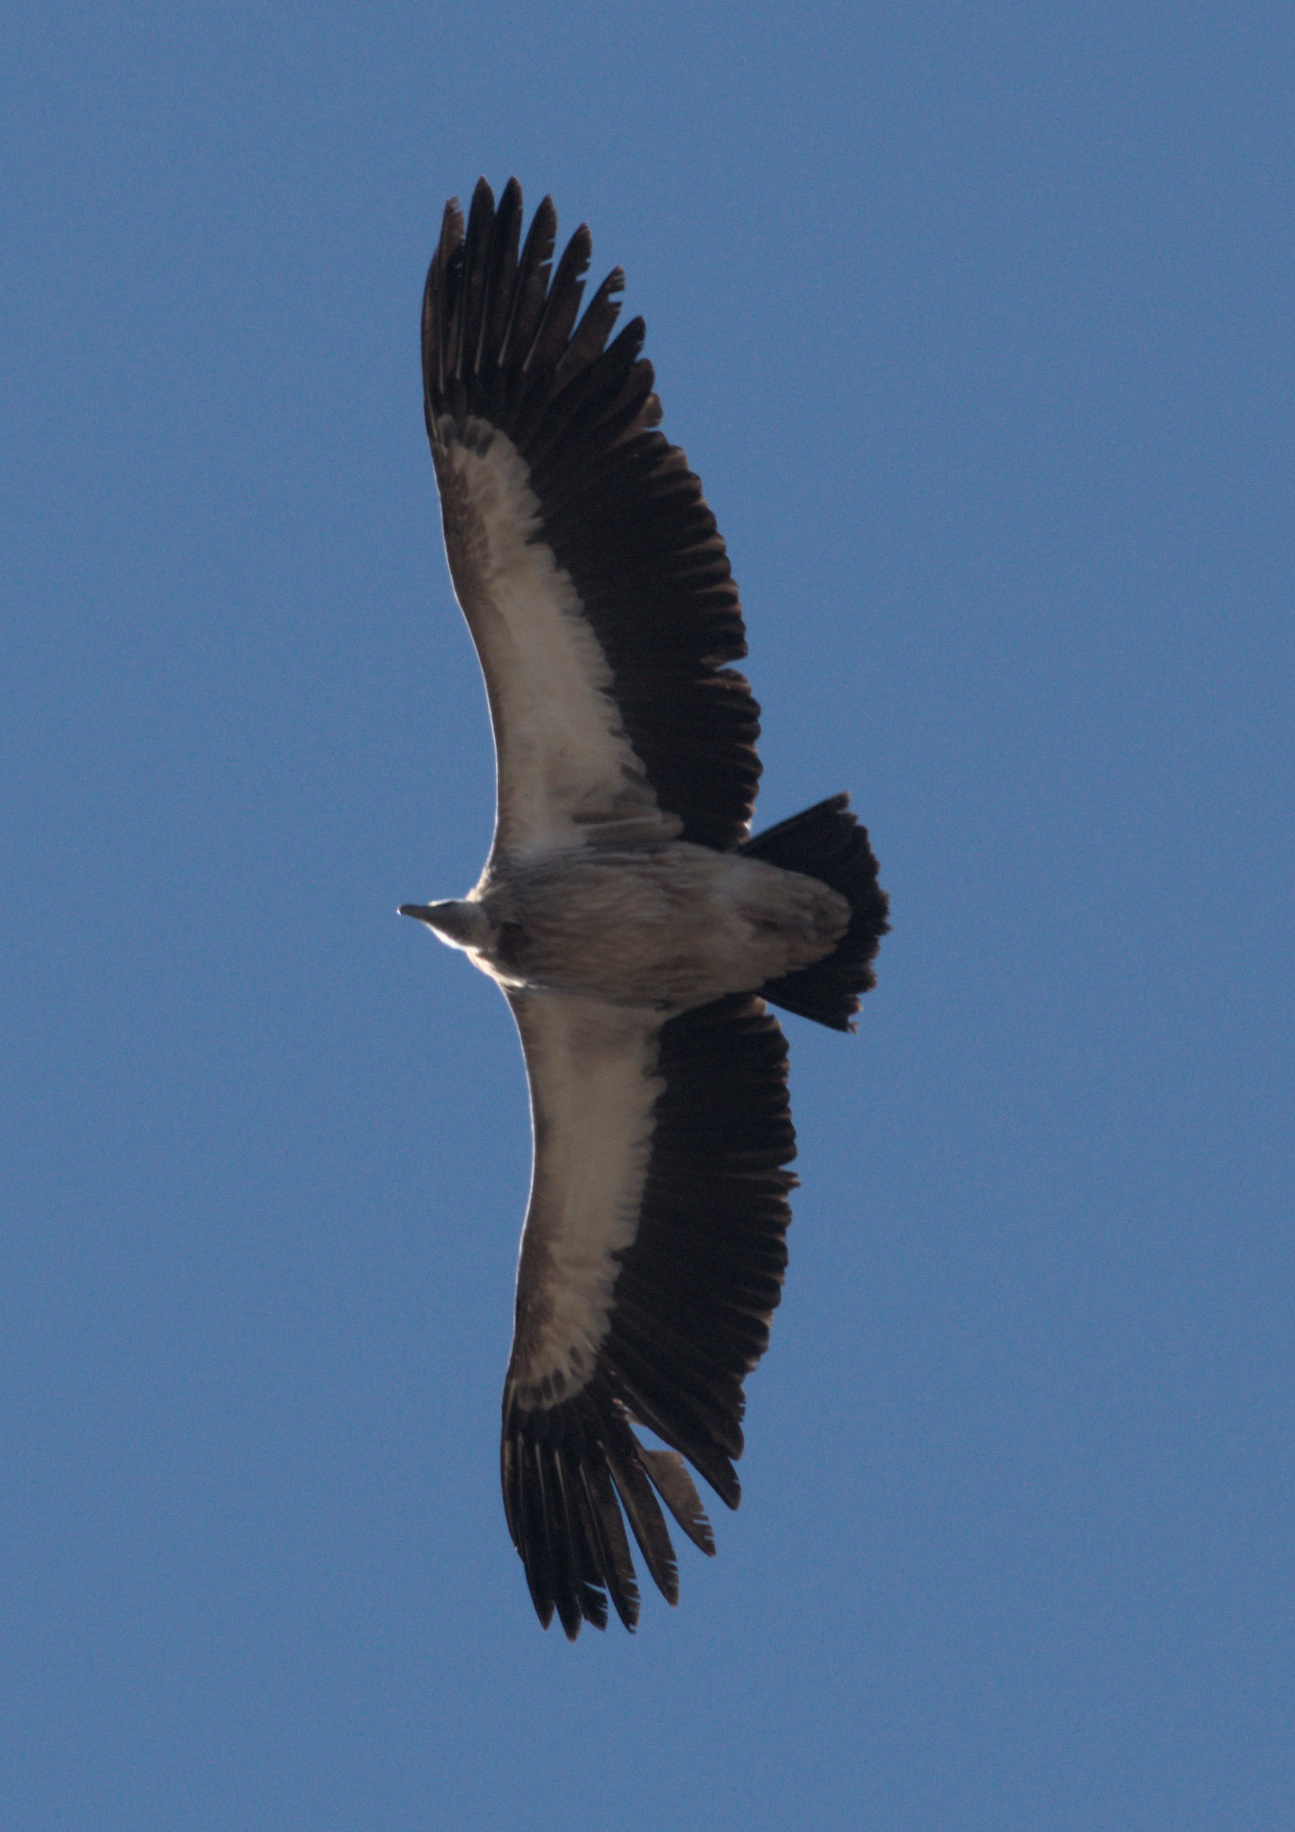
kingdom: Animalia
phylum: Chordata
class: Aves
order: Accipitriformes
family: Accipitridae
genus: Gyps
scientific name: Gyps himalayensis
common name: Himalayan griffon
